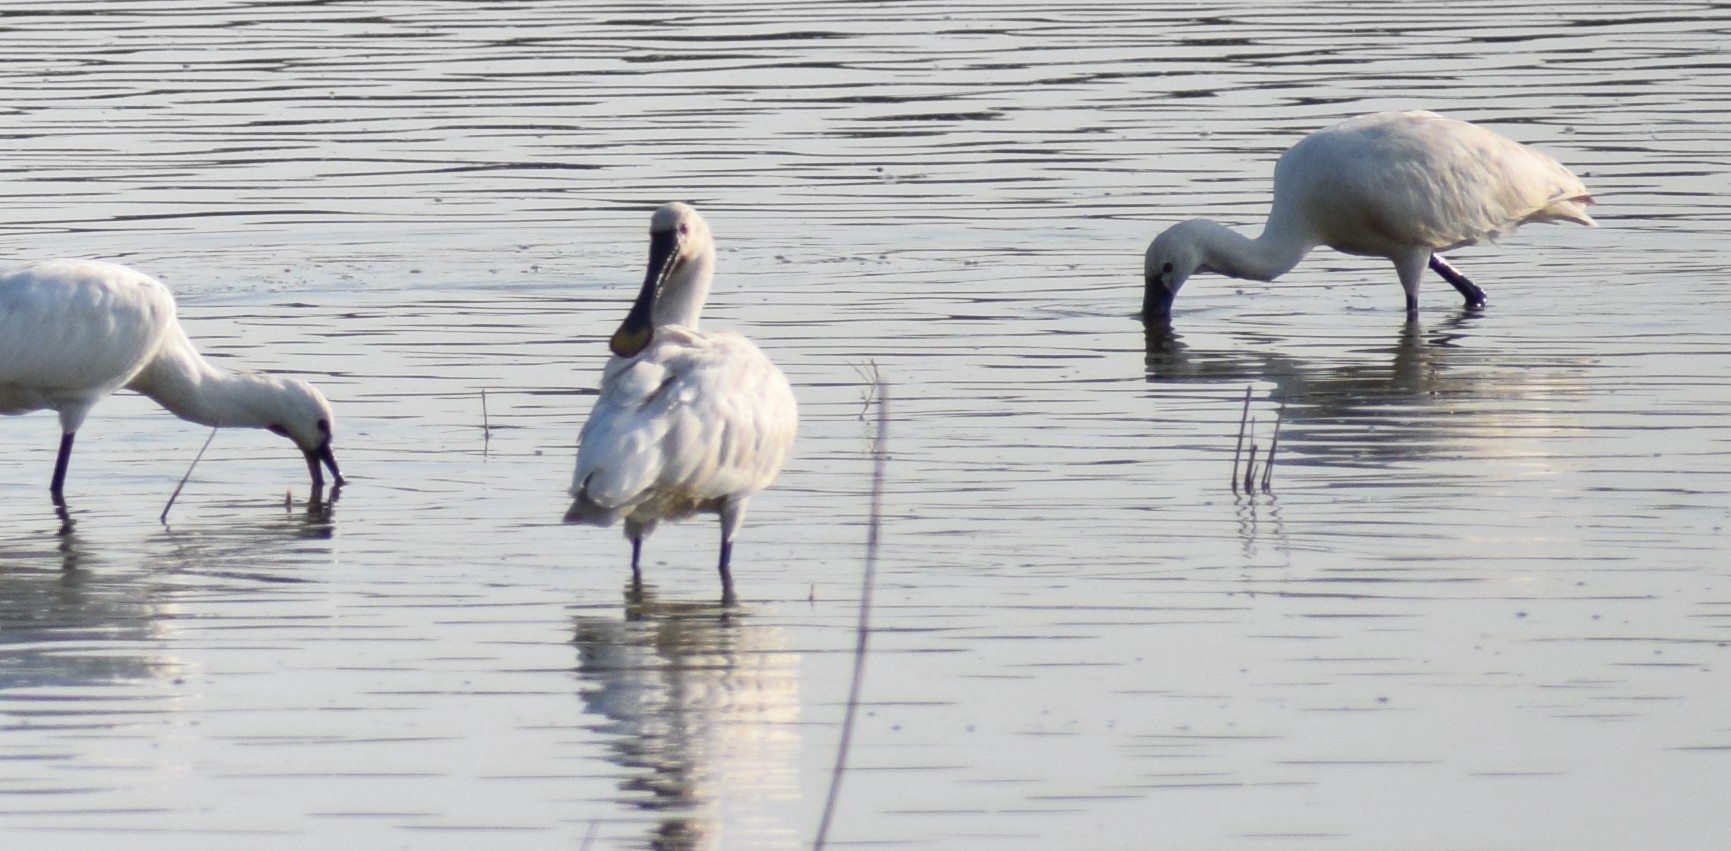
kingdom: Animalia
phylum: Chordata
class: Aves
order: Pelecaniformes
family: Threskiornithidae
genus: Platalea
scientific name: Platalea leucorodia
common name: Eurasian spoonbill
